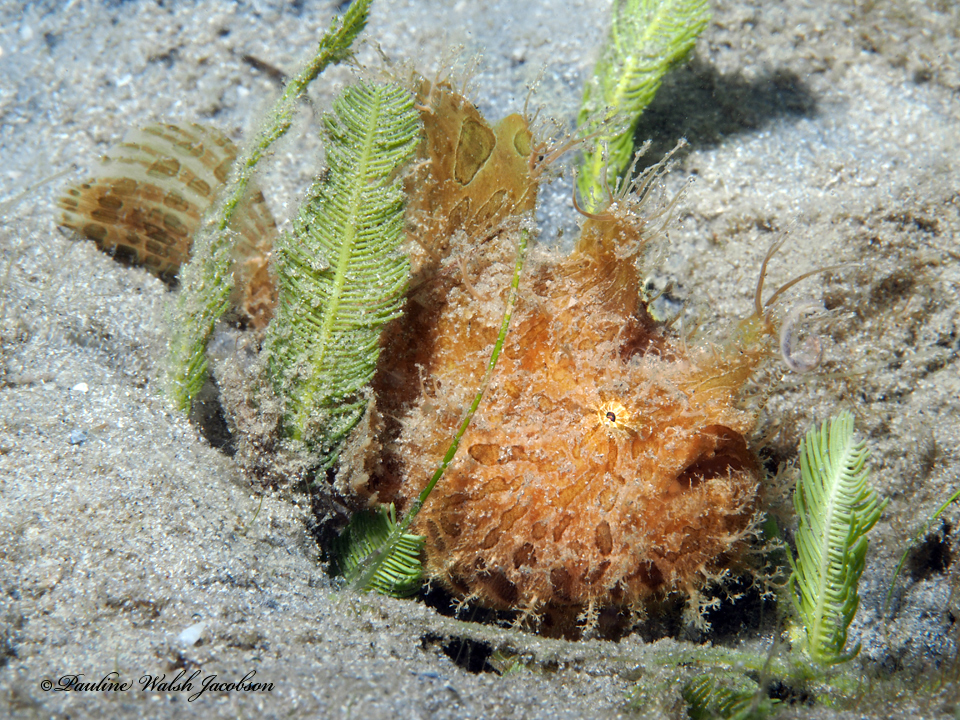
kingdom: Animalia
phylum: Chordata
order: Lophiiformes
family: Antennariidae
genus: Antennarius
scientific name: Antennarius striatus
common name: Striated frogfish
